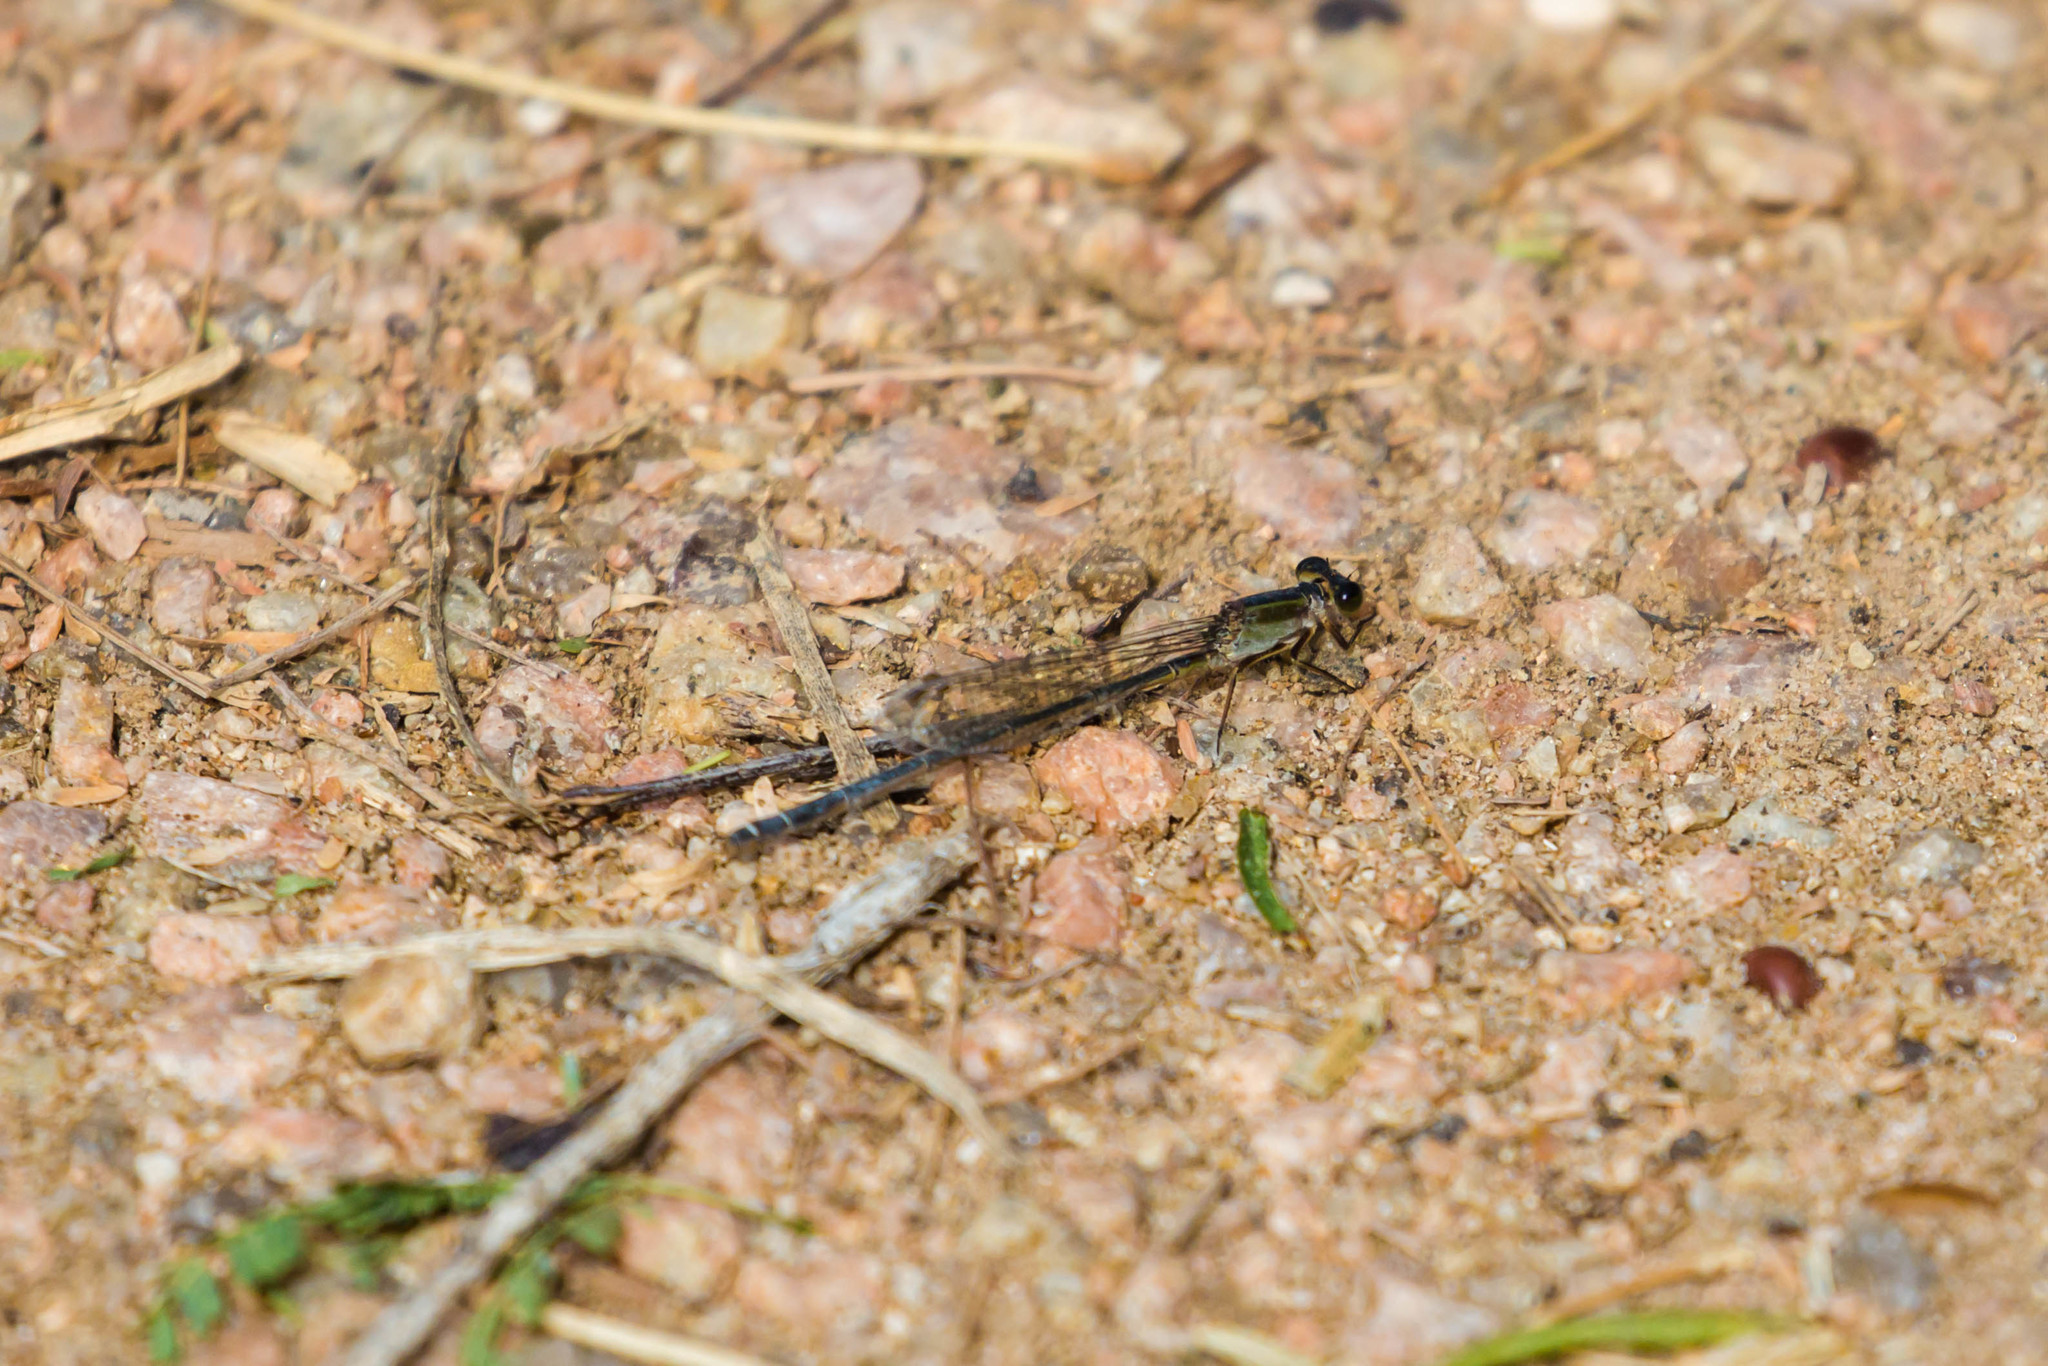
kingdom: Animalia
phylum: Arthropoda
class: Insecta
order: Odonata
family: Coenagrionidae
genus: Ischnura
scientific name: Ischnura posita
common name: Fragile forktail
